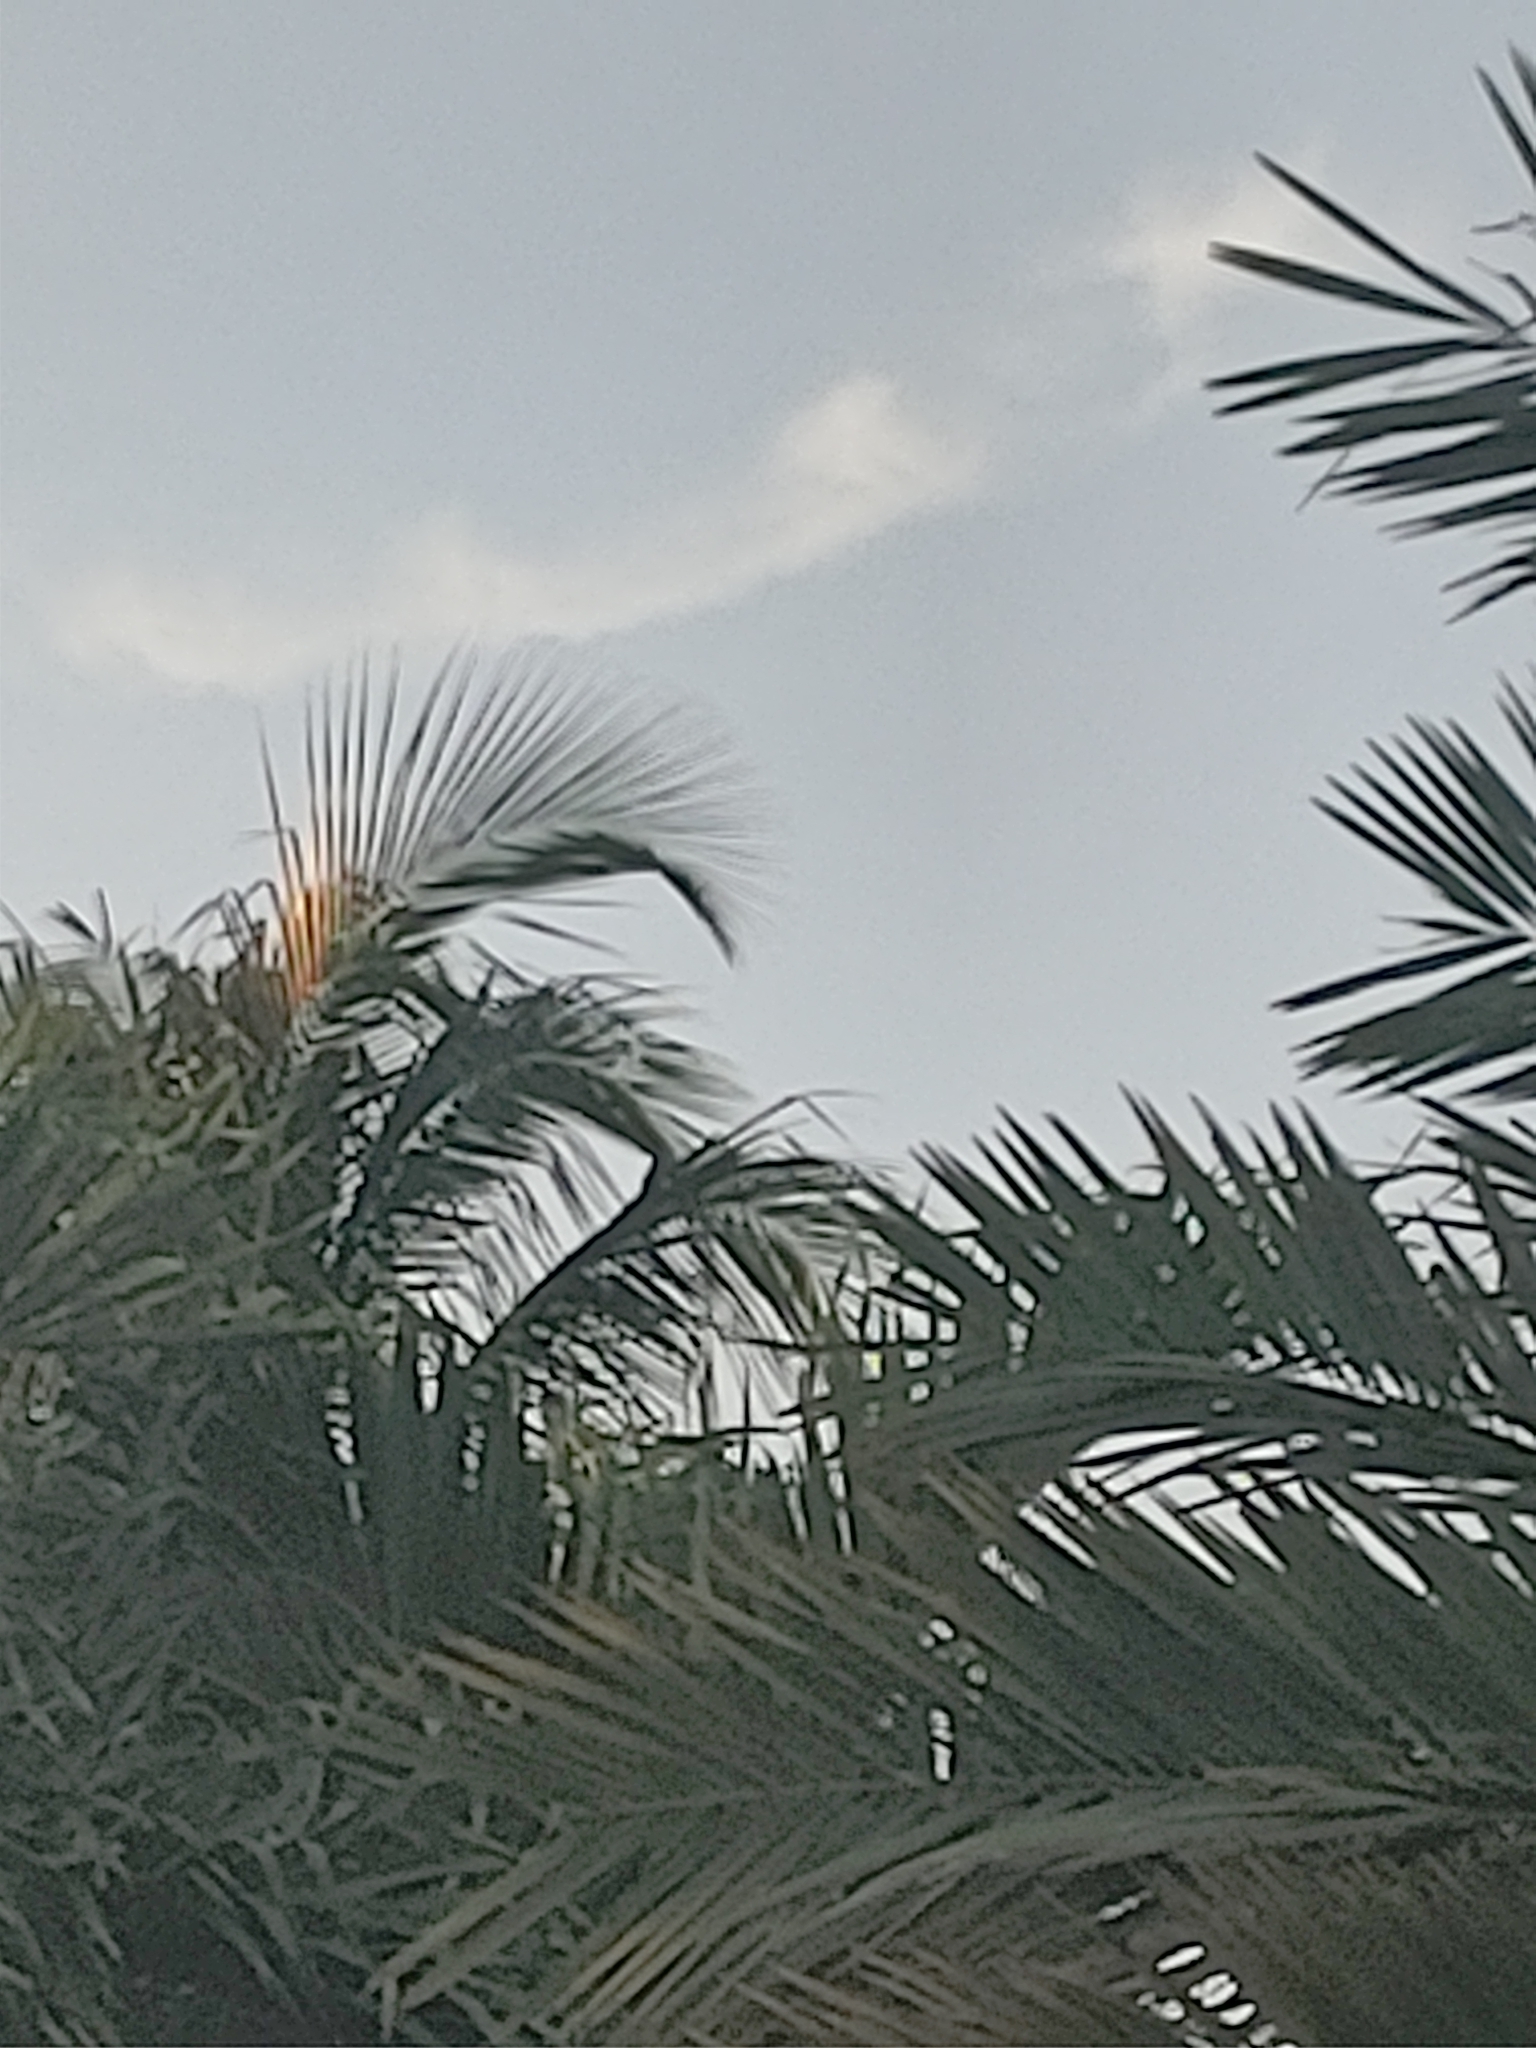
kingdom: Animalia
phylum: Chordata
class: Aves
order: Psittaciformes
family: Psittacidae
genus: Myiopsitta
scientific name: Myiopsitta monachus
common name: Monk parakeet
